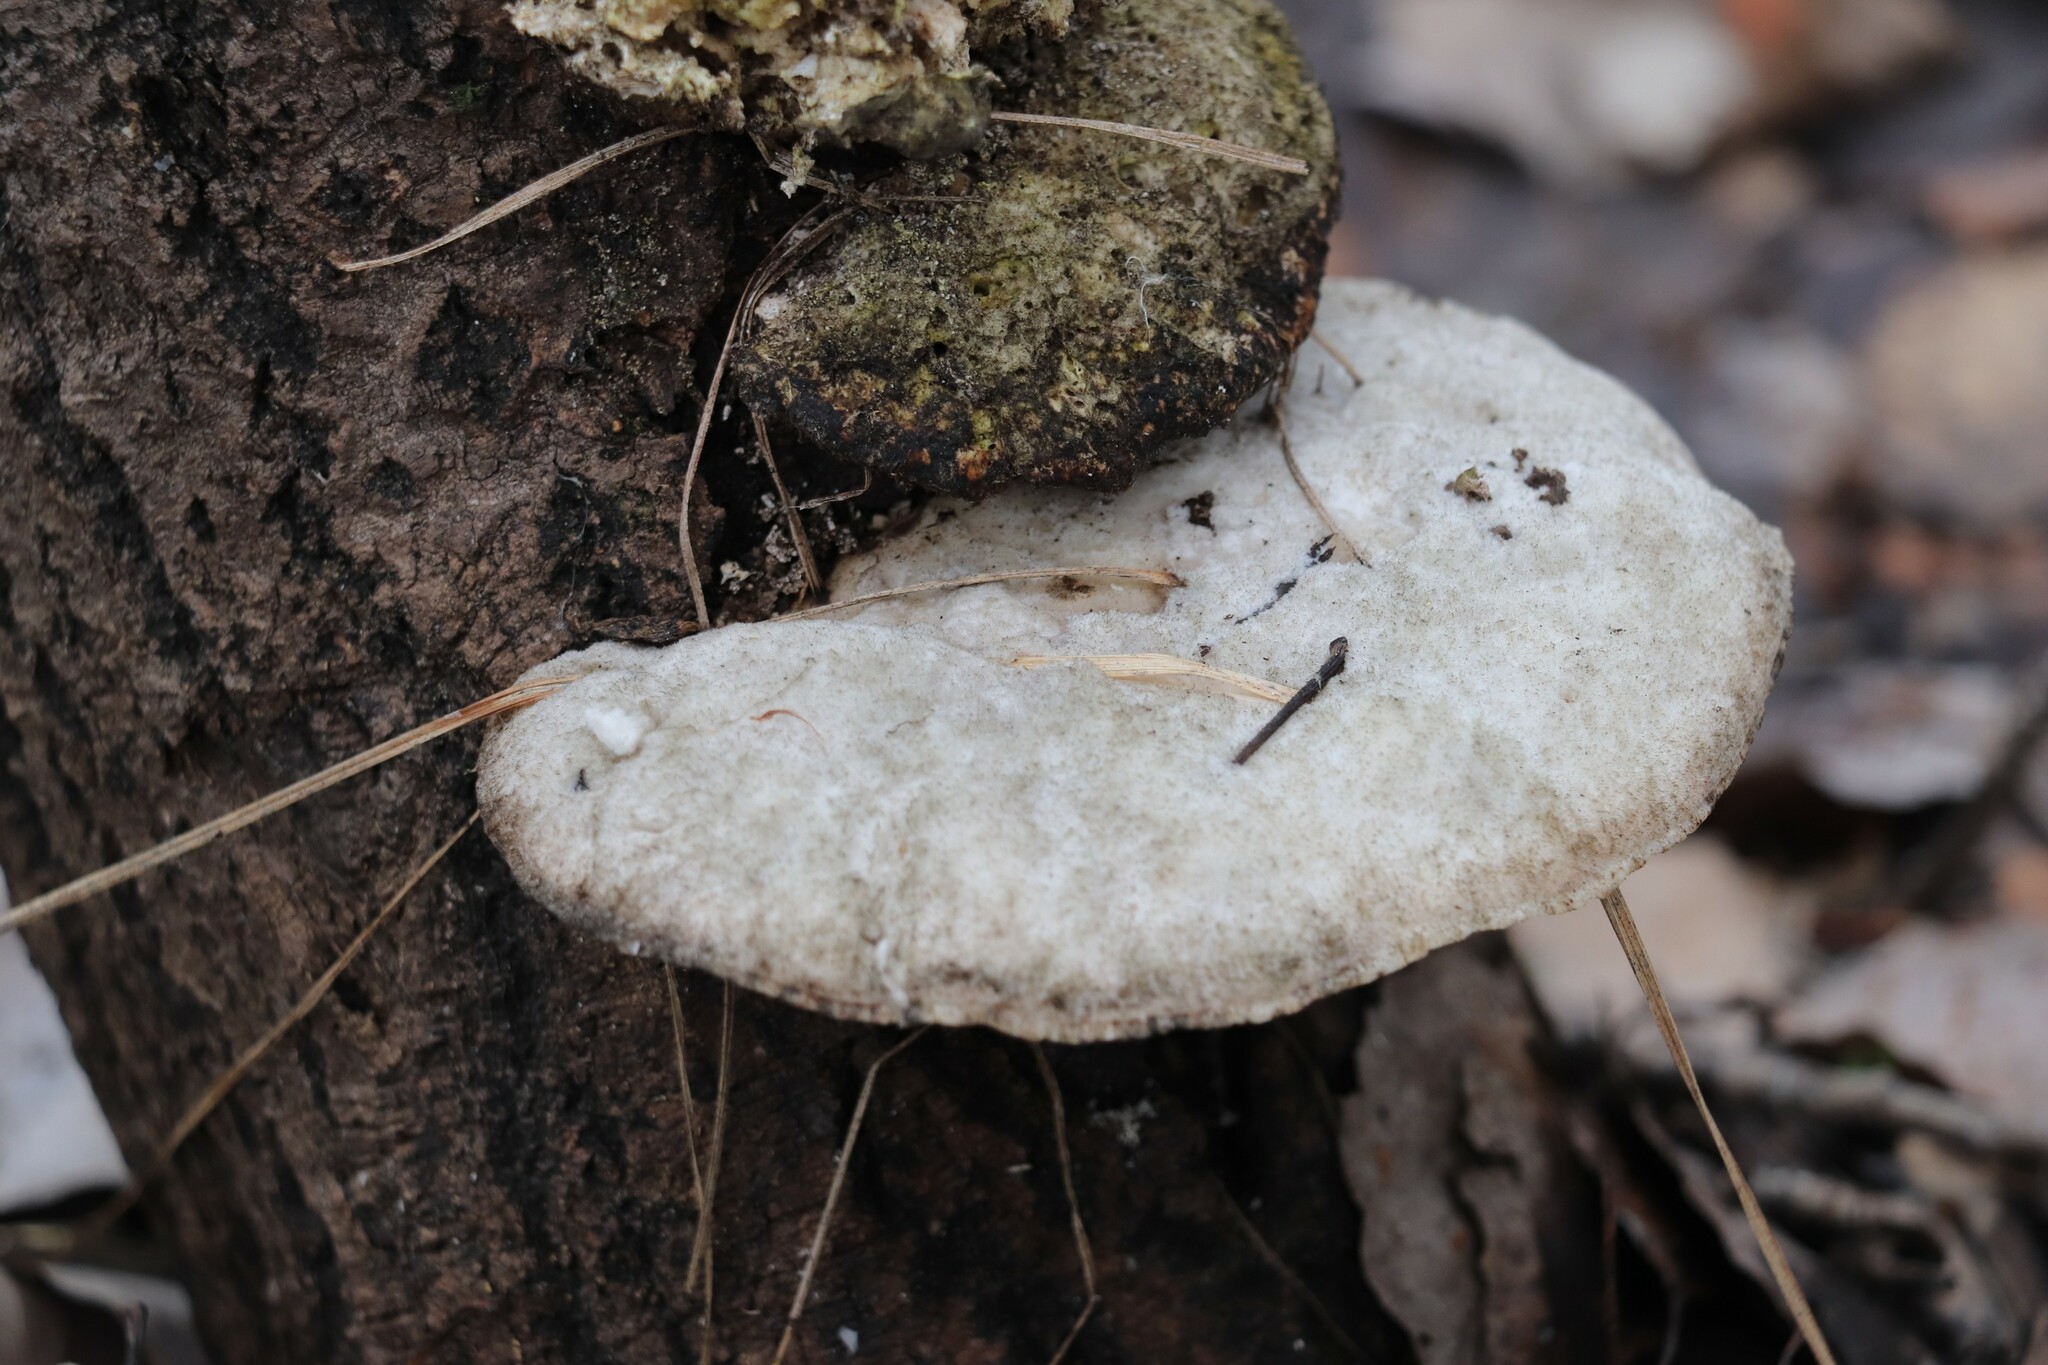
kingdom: Fungi
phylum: Basidiomycota
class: Agaricomycetes
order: Polyporales
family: Polyporaceae
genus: Trametes
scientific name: Trametes suaveolens
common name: Fragrant bracket
